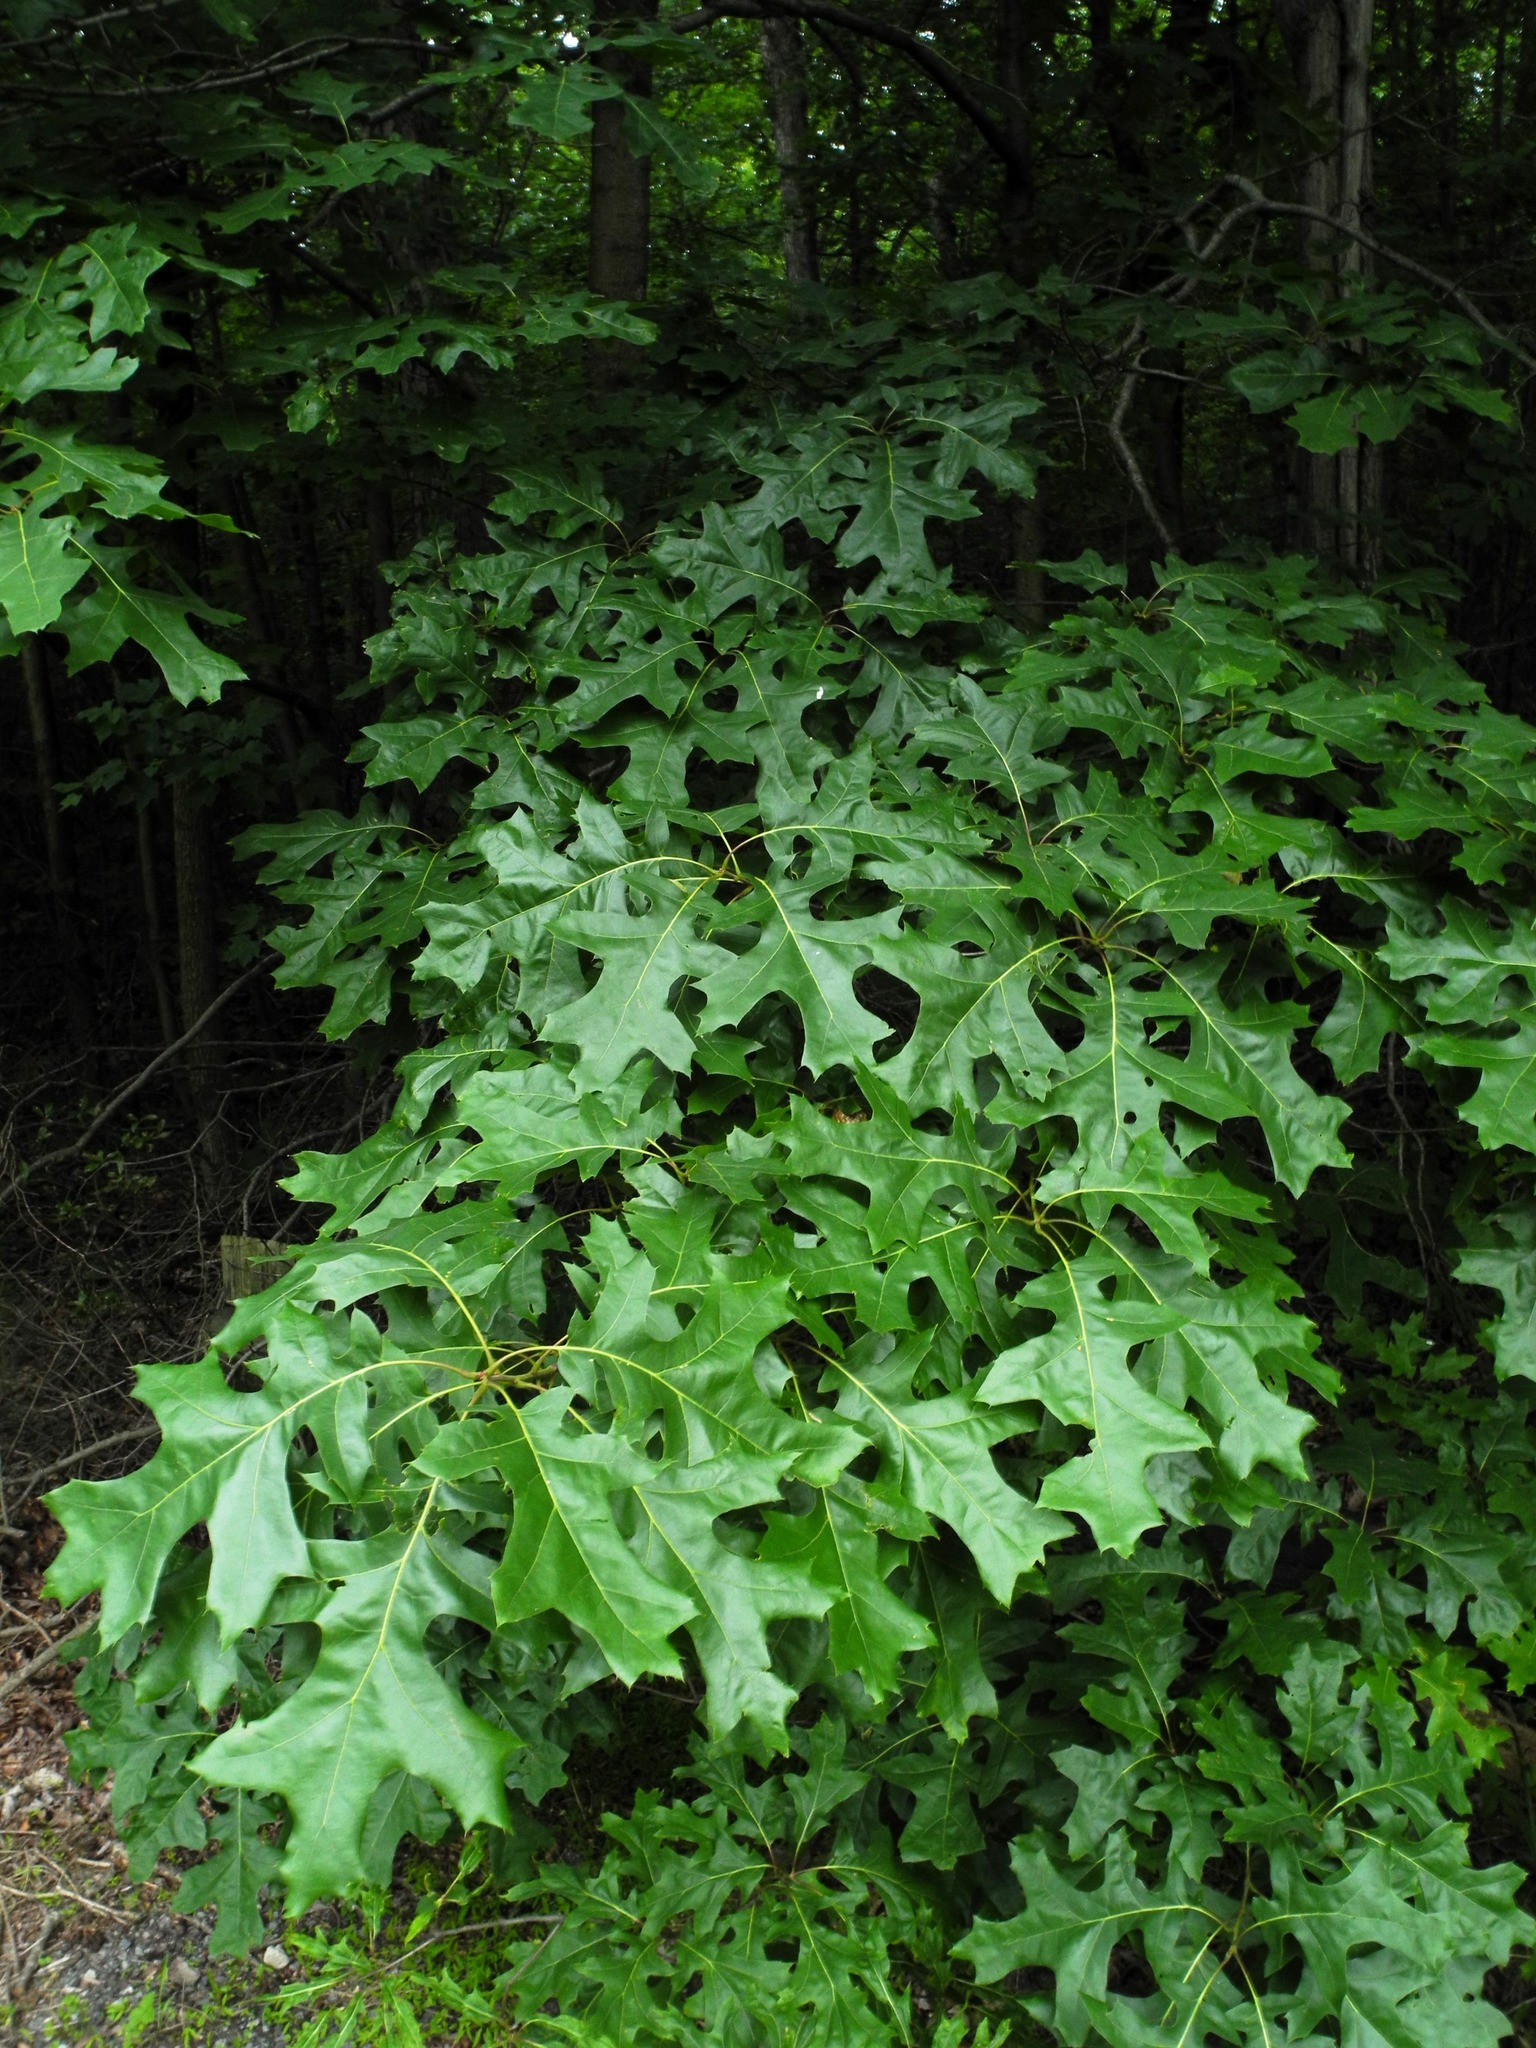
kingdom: Plantae
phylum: Tracheophyta
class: Magnoliopsida
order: Fagales
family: Fagaceae
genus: Quercus
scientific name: Quercus velutina
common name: Black oak
